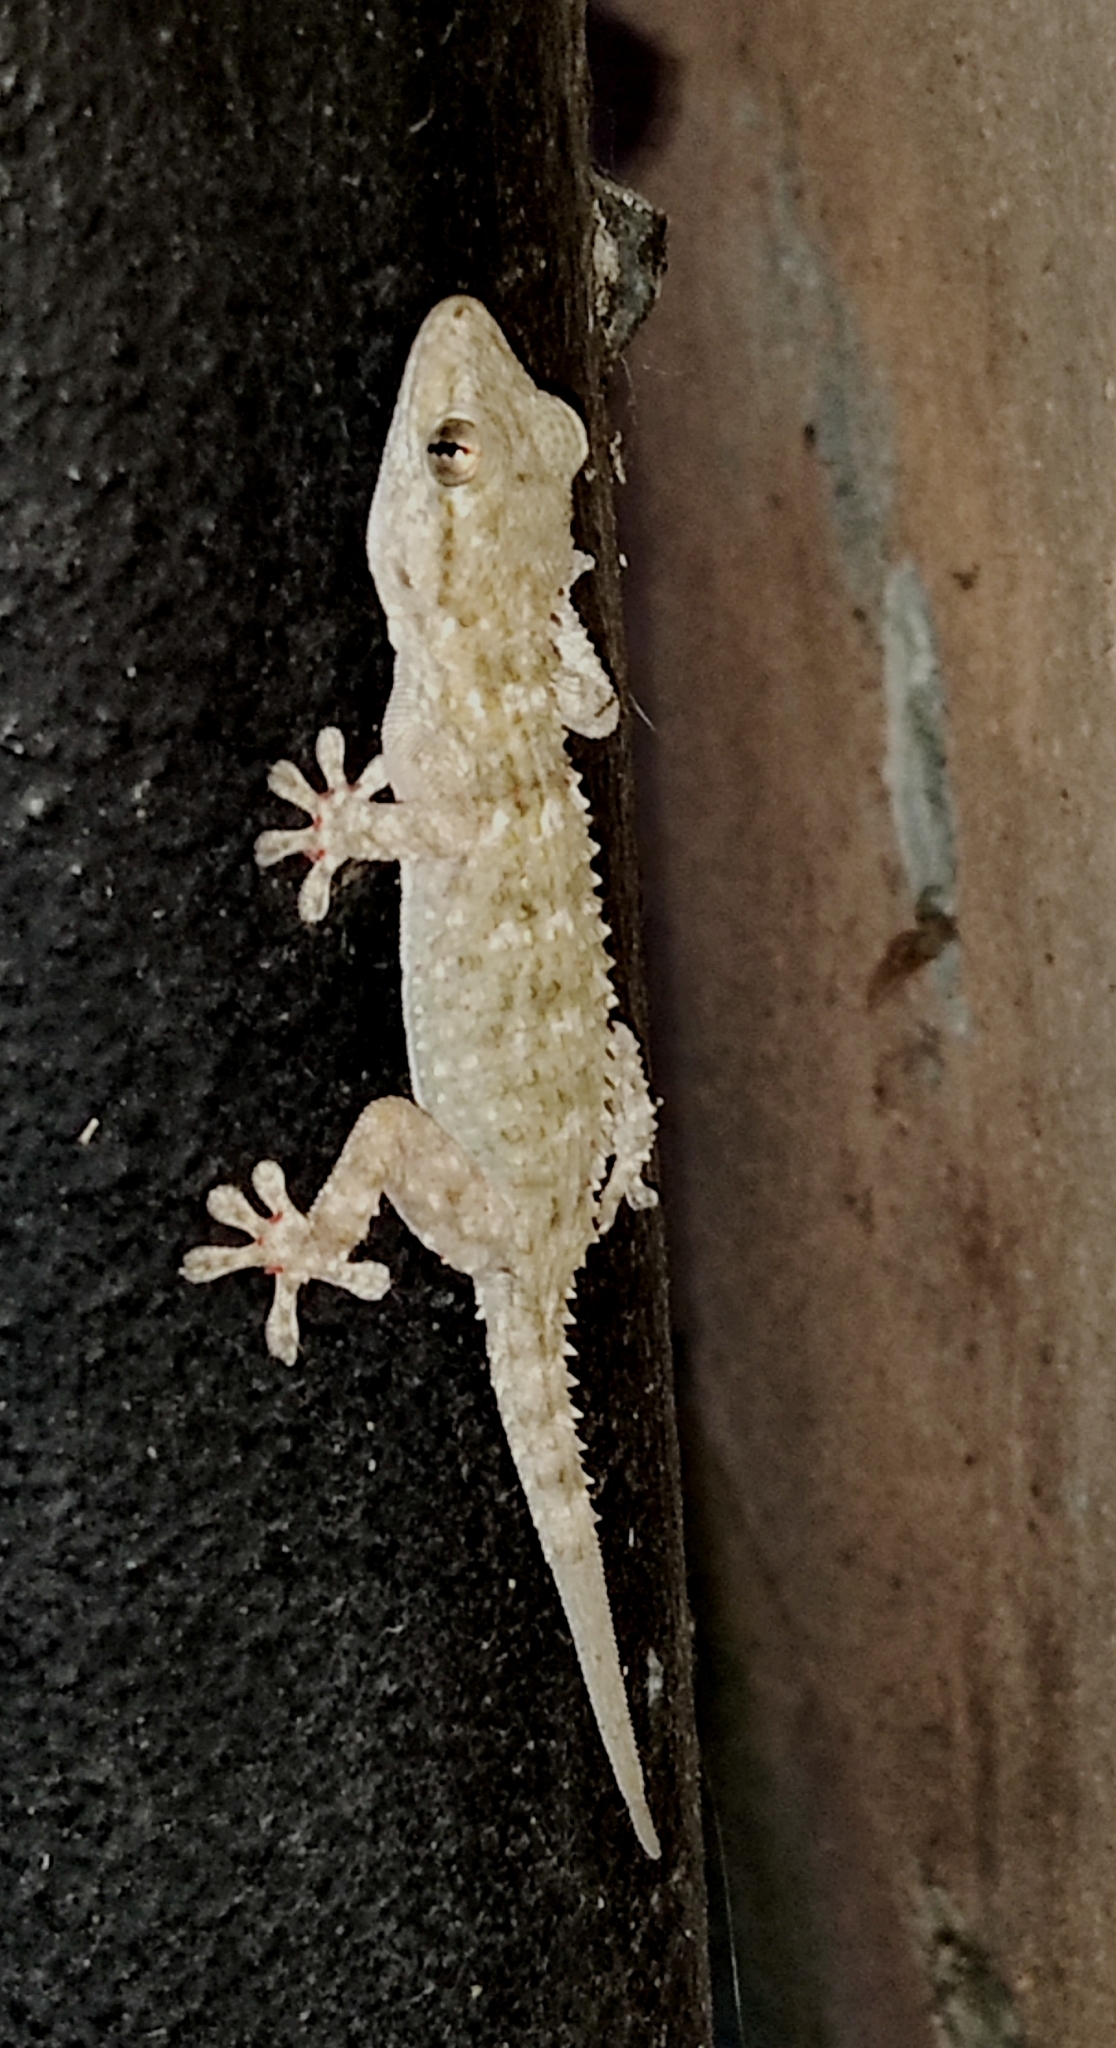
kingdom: Animalia
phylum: Chordata
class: Squamata
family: Phyllodactylidae
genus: Tarentola
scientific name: Tarentola mauritanica
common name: Moorish gecko
